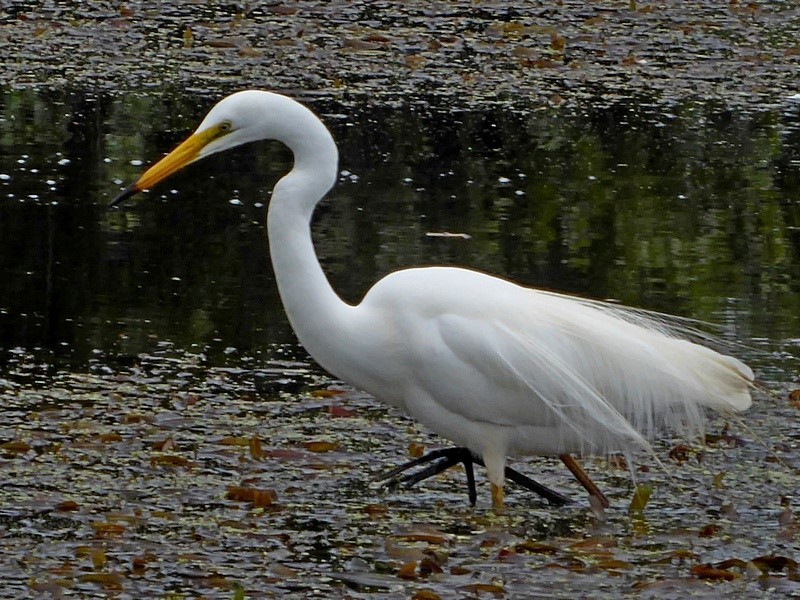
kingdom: Animalia
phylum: Chordata
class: Aves
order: Pelecaniformes
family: Ardeidae
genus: Ardea
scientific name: Ardea alba
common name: Great egret
